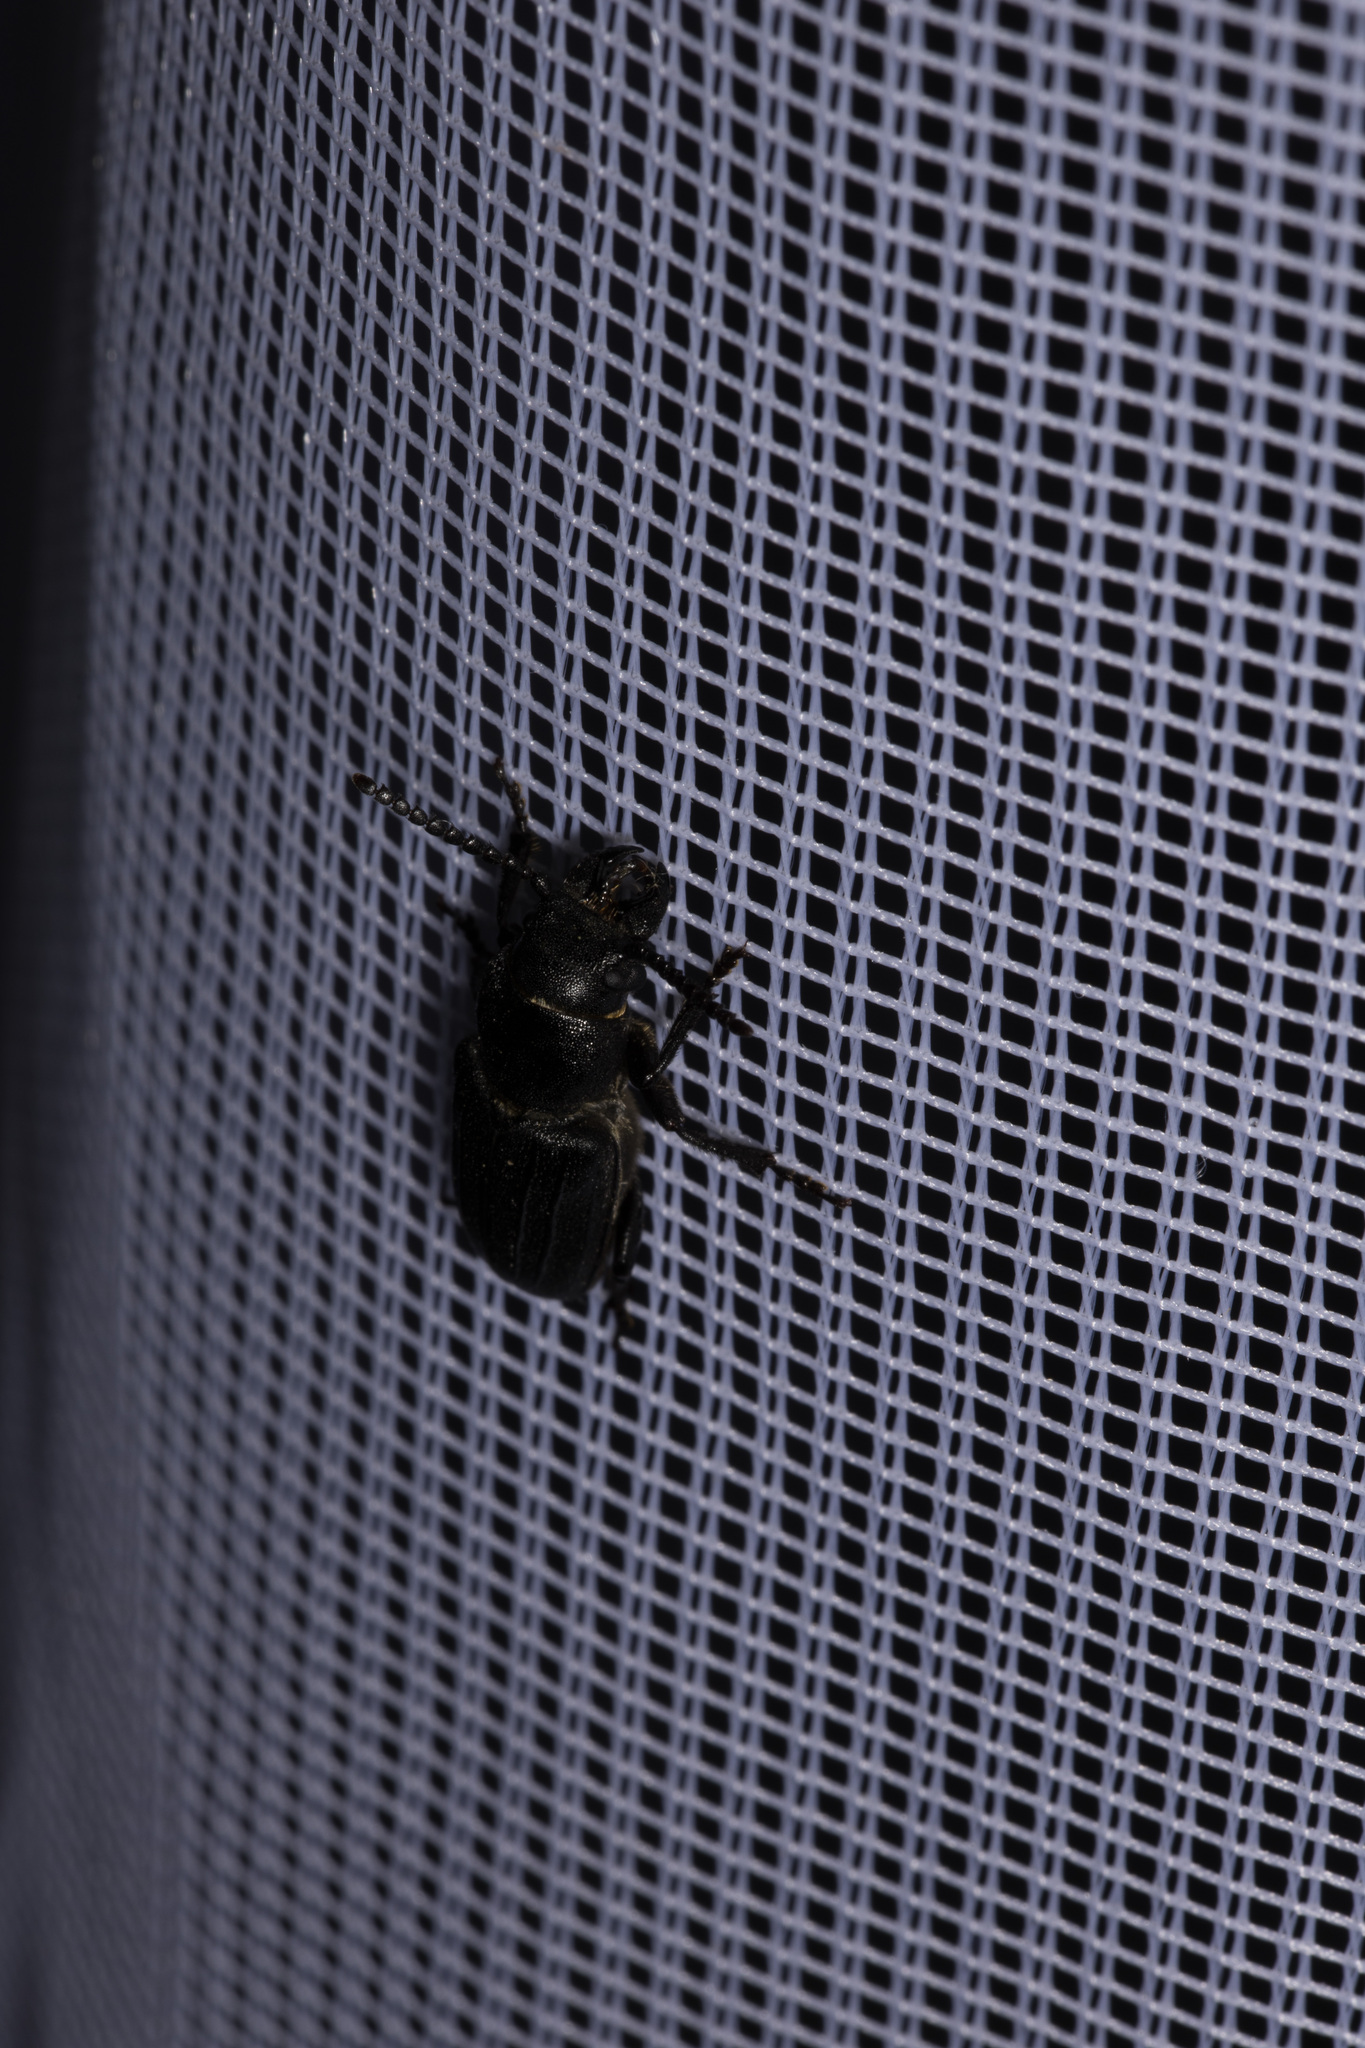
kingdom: Animalia
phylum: Arthropoda
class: Insecta
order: Coleoptera
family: Cerambycidae
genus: Spondylis
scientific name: Spondylis buprestoides
